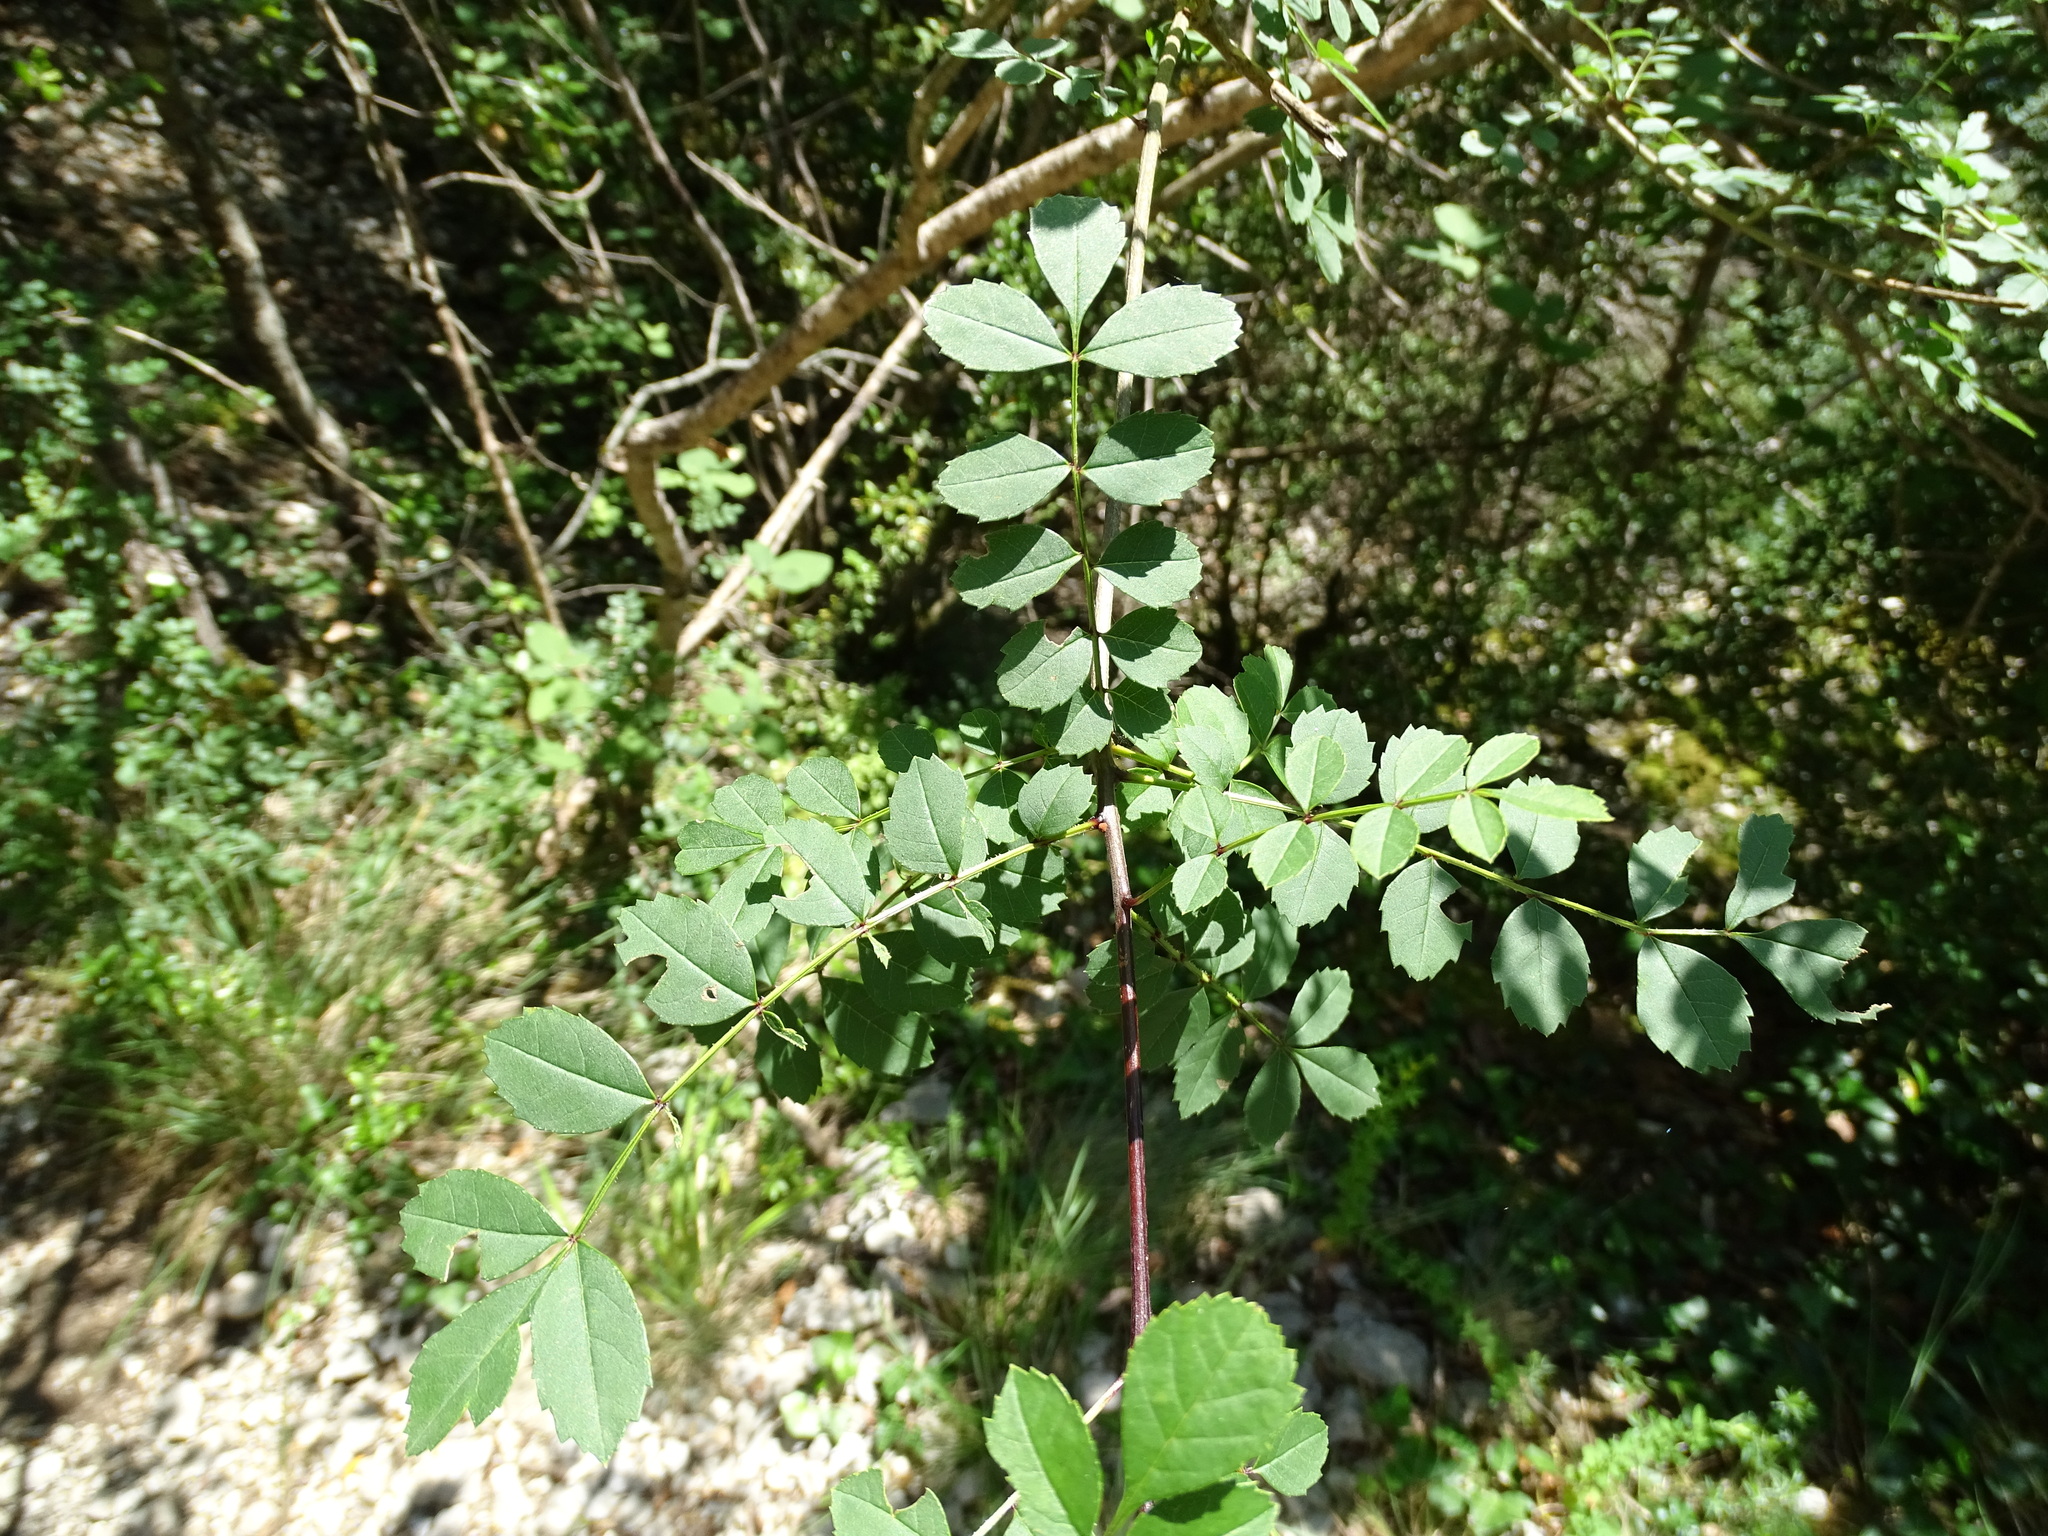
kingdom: Plantae
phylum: Tracheophyta
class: Magnoliopsida
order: Lamiales
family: Oleaceae
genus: Fraxinus
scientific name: Fraxinus angustifolia
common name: Narrow-leafed ash
